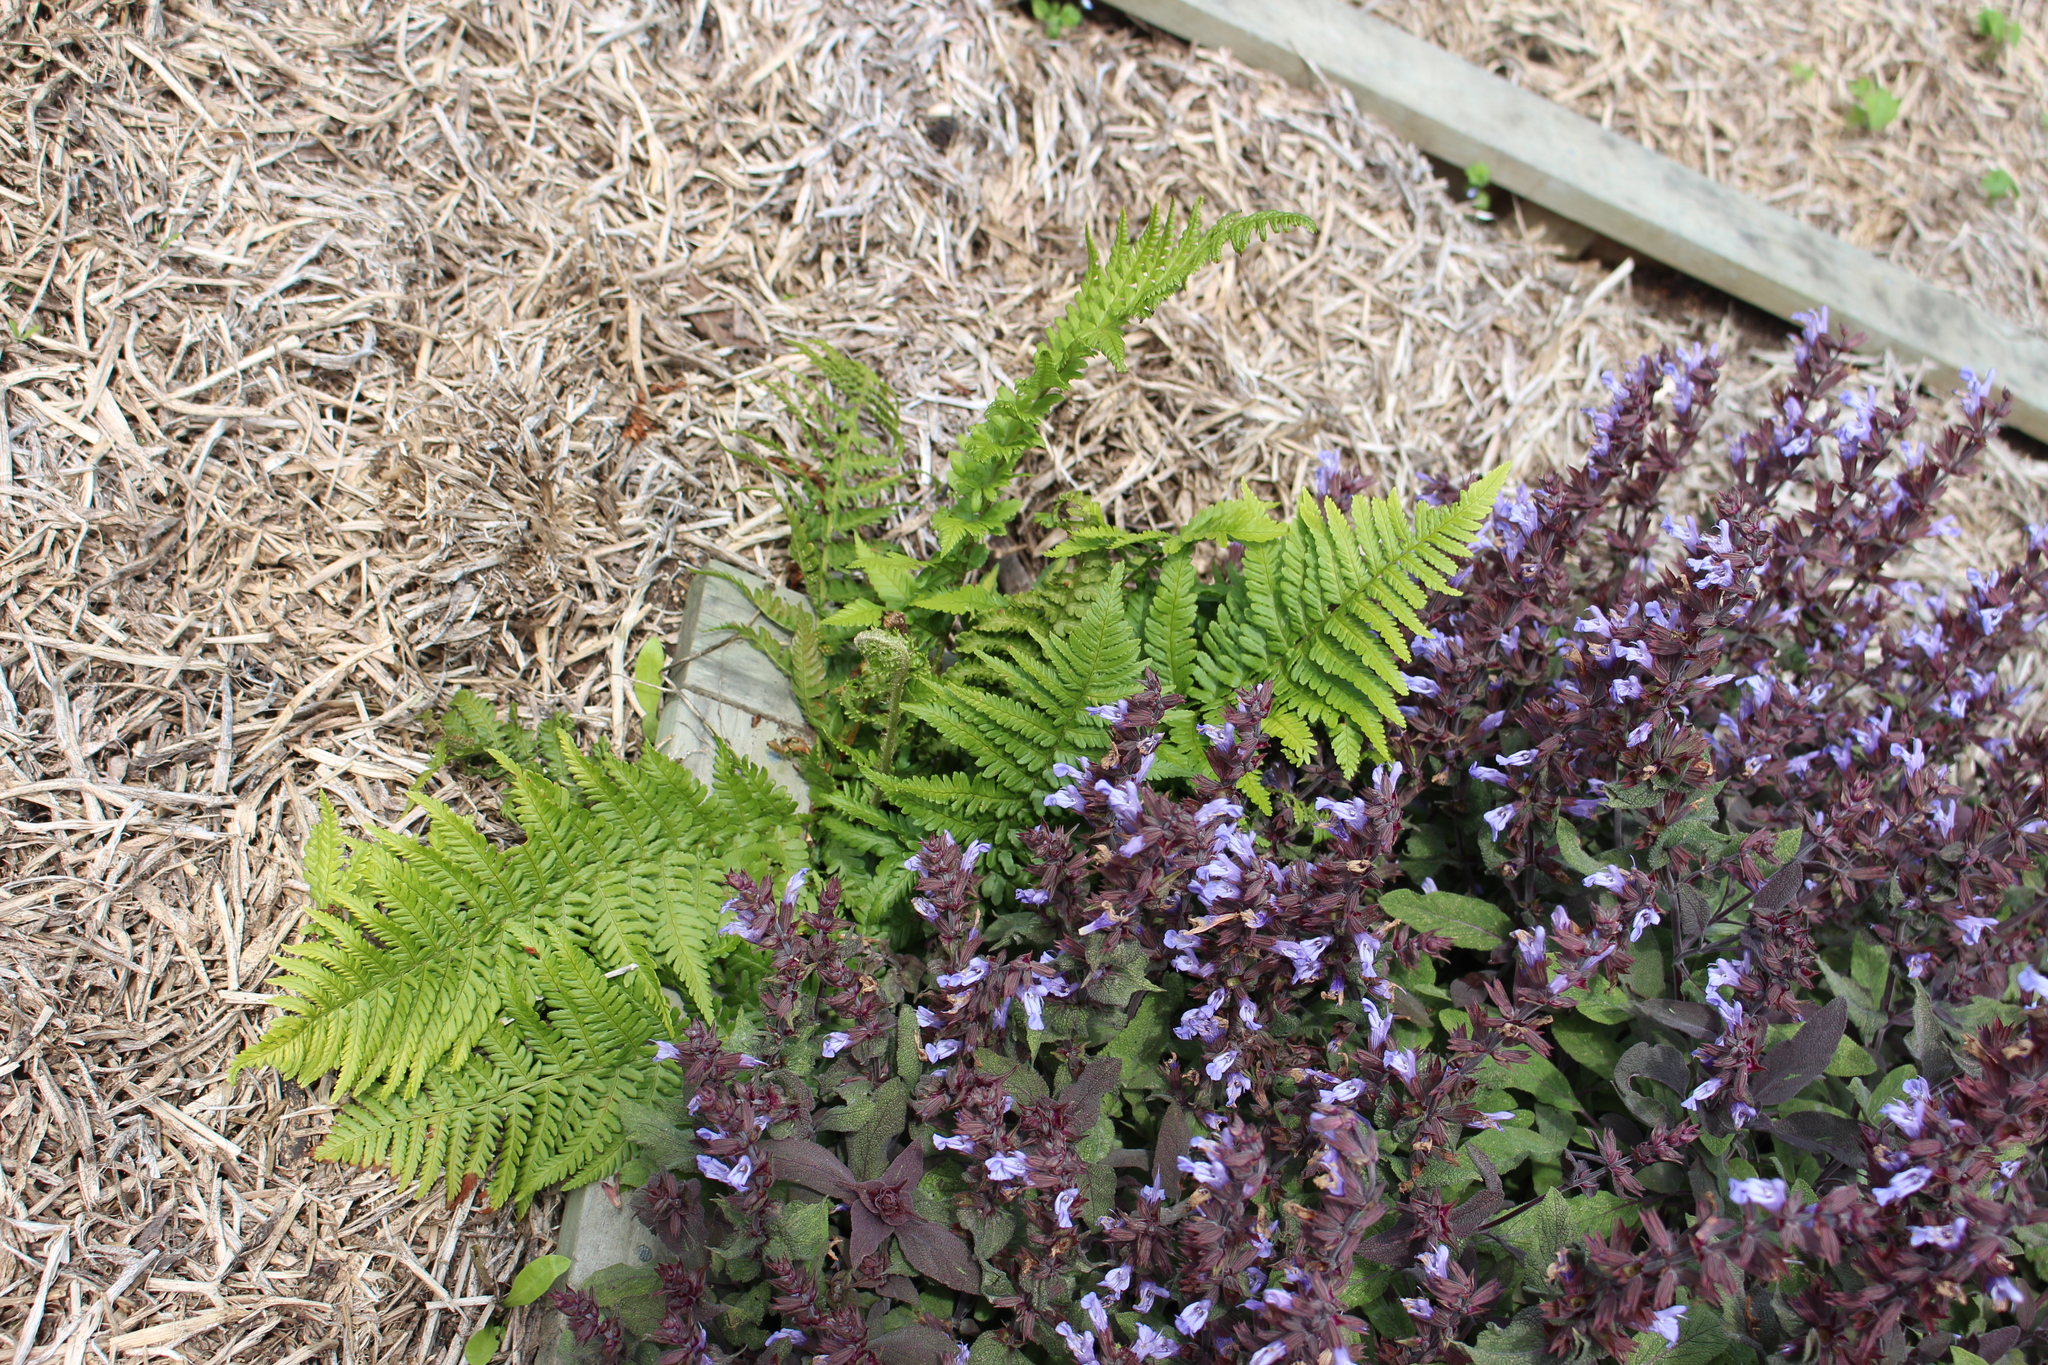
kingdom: Plantae
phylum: Tracheophyta
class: Polypodiopsida
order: Polypodiales
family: Dryopteridaceae
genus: Dryopteris
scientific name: Dryopteris filix-mas
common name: Male fern
